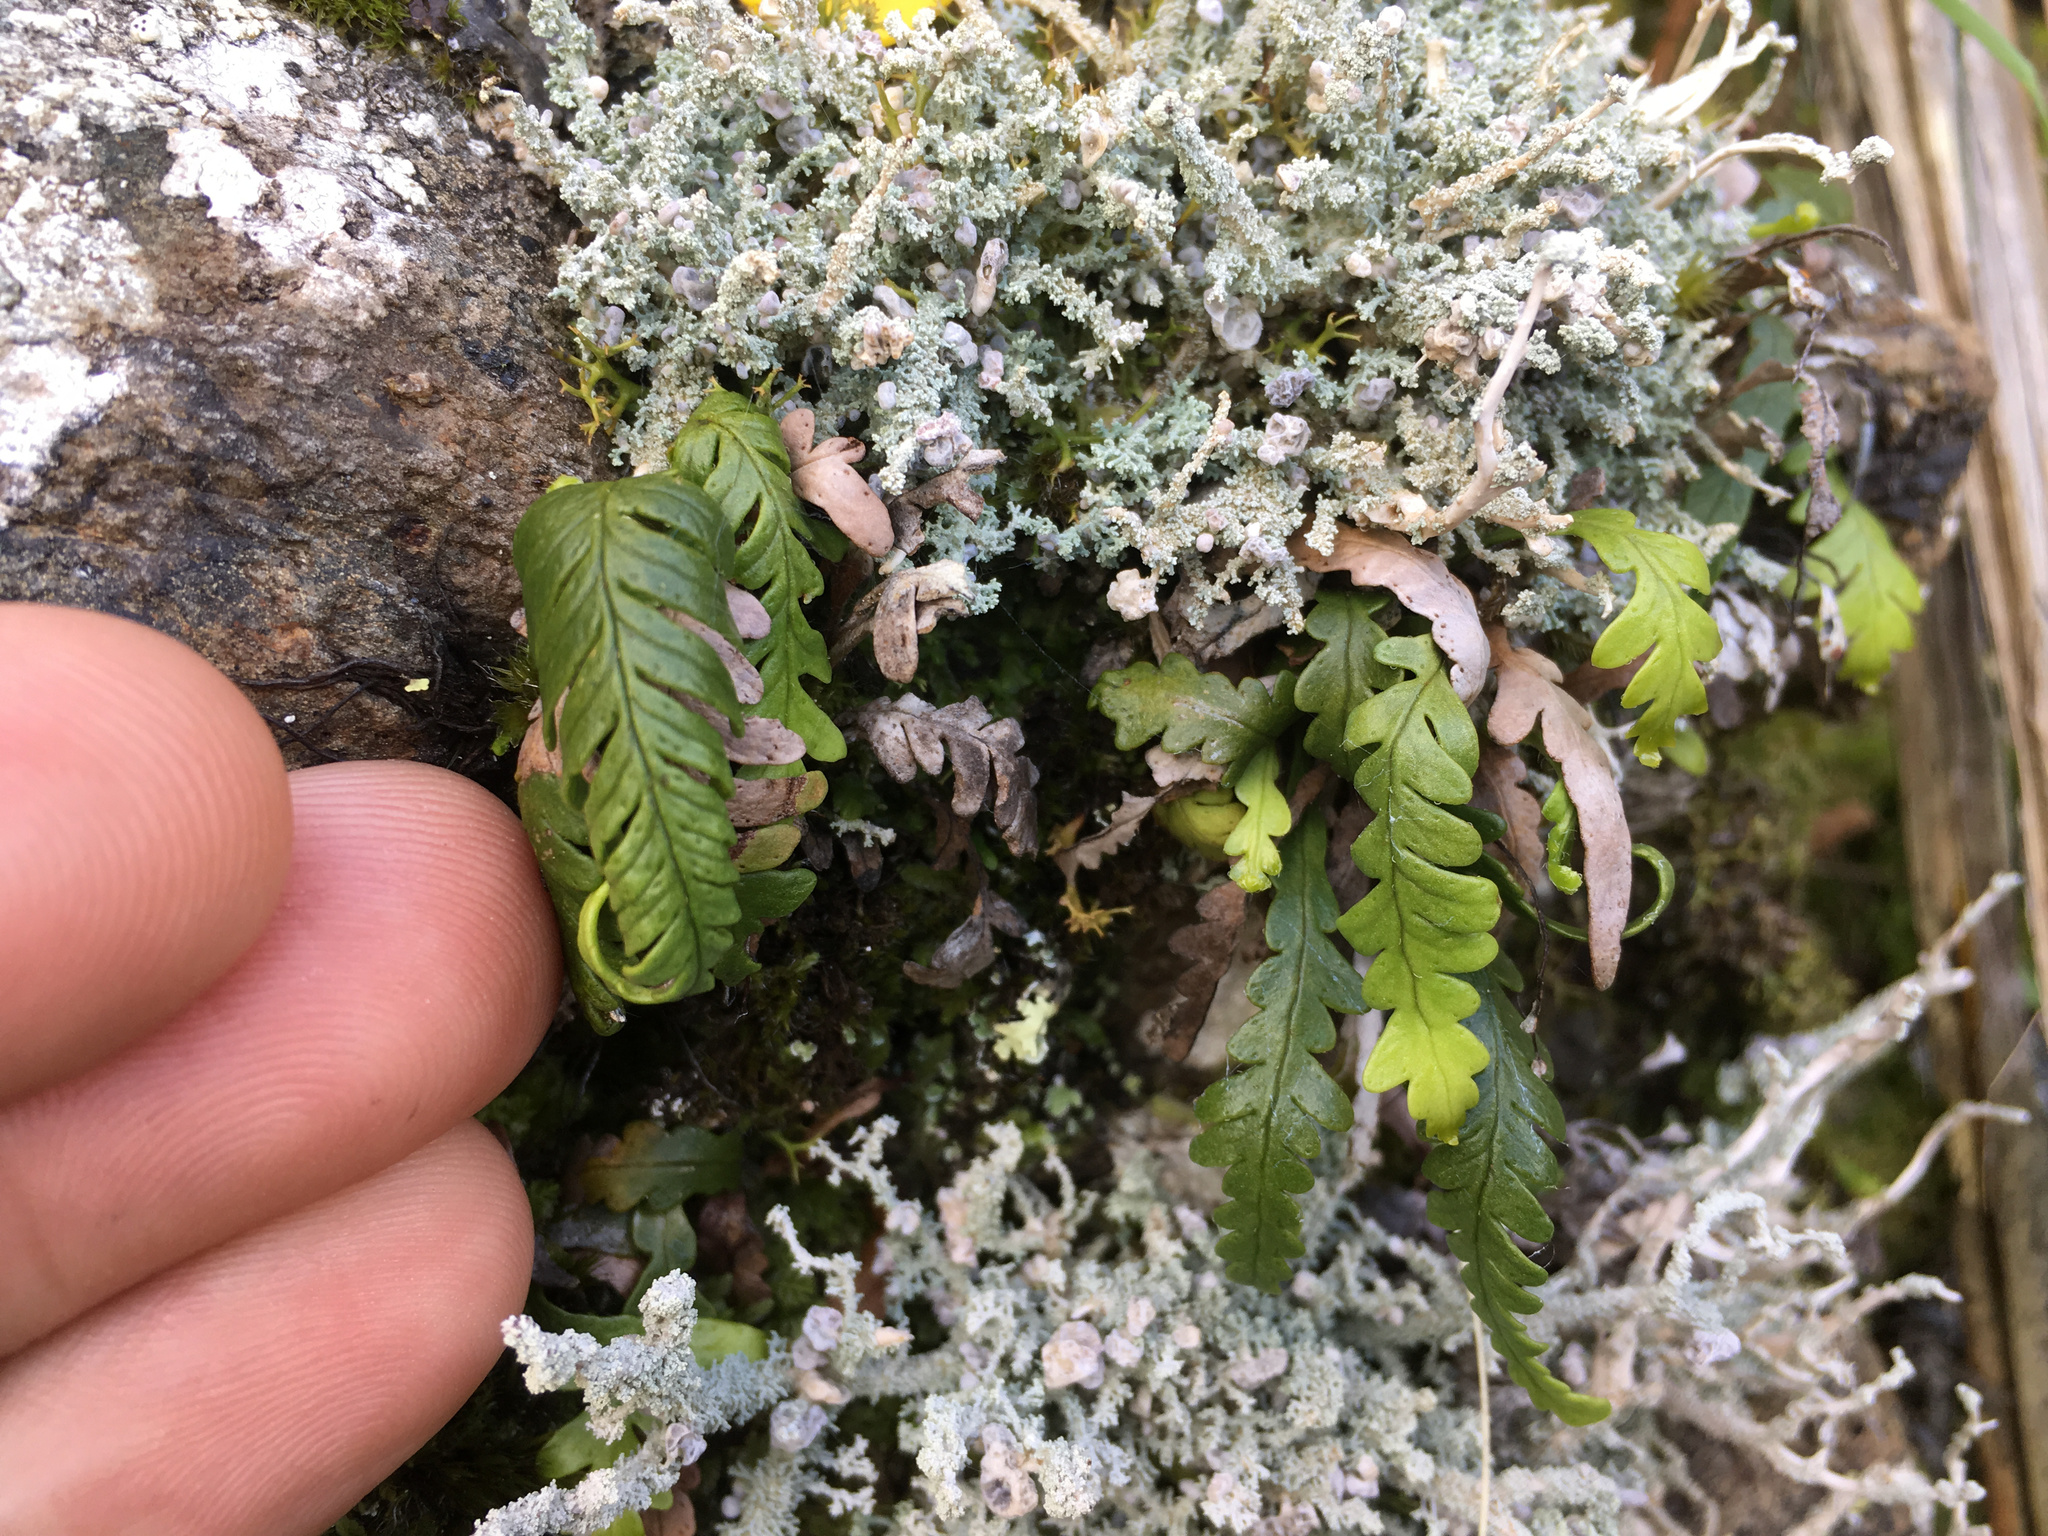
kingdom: Plantae
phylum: Tracheophyta
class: Polypodiopsida
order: Polypodiales
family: Polypodiaceae
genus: Notogrammitis
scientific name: Notogrammitis heterophylla
